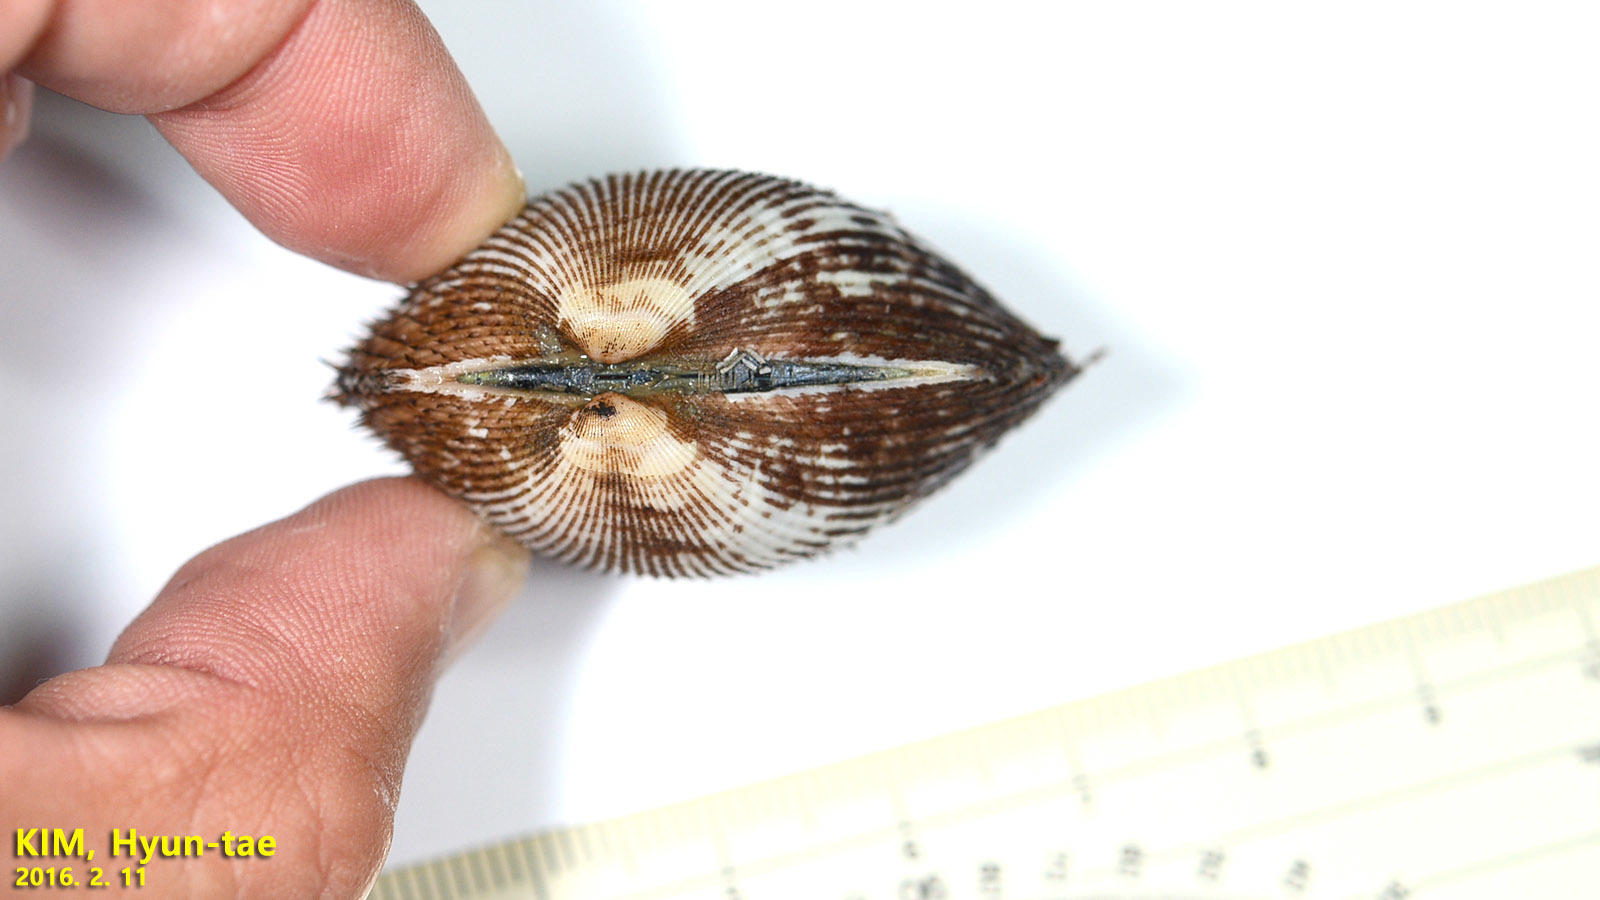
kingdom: Animalia
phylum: Mollusca
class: Bivalvia
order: Arcida
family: Arcidae
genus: Anadara
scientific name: Anadara broughtonii
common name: Blood clam
